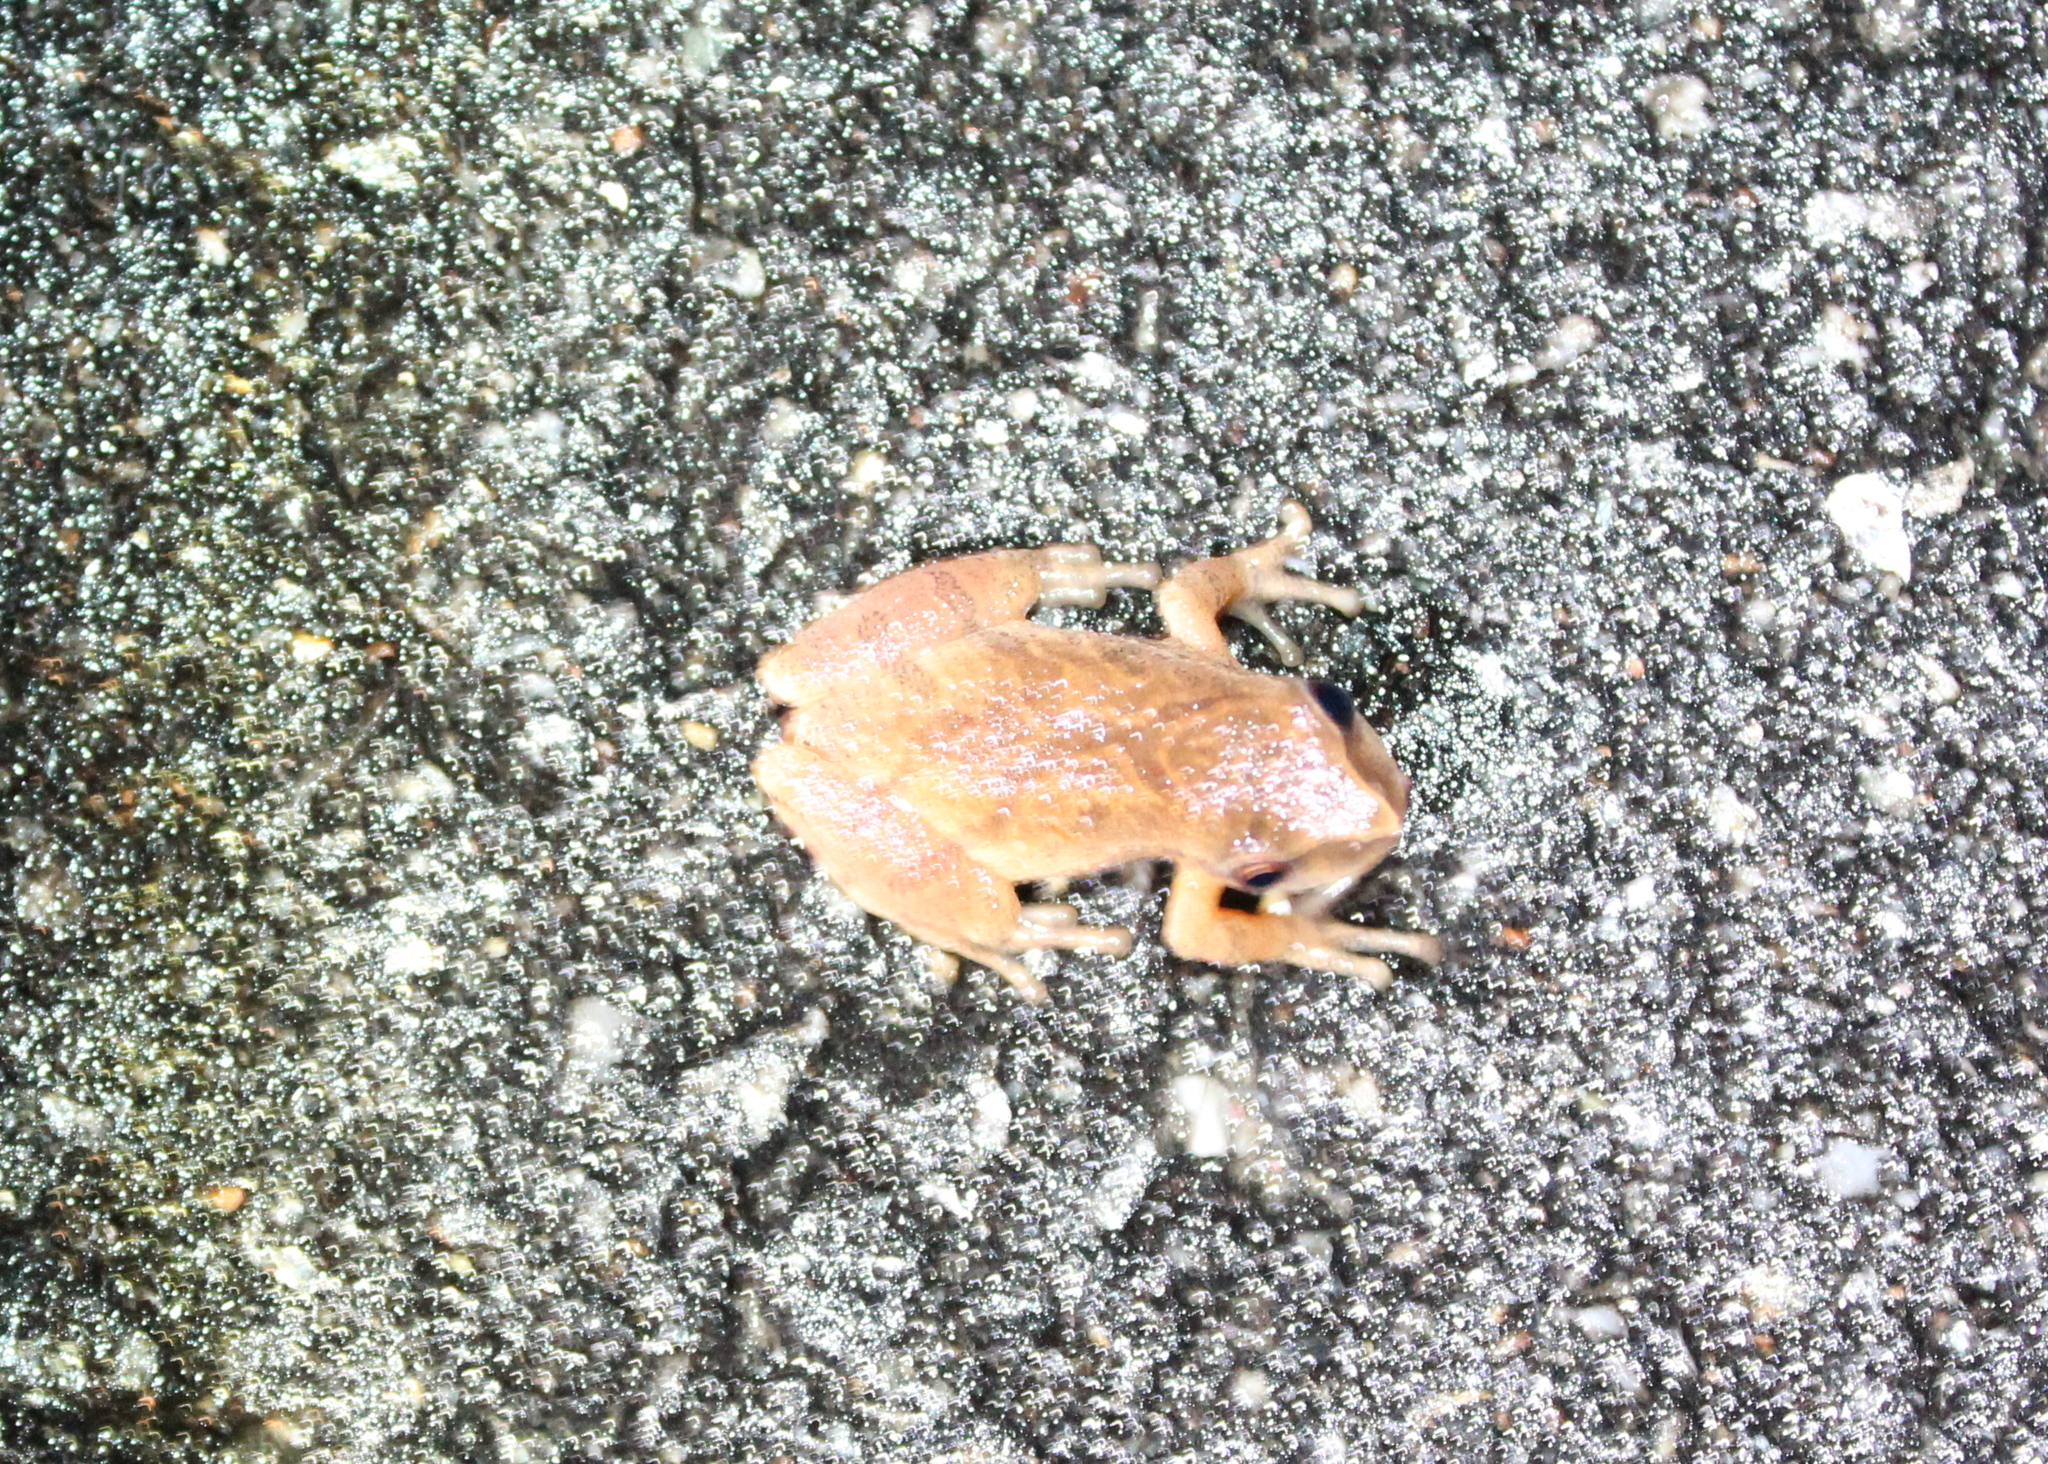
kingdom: Animalia
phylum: Chordata
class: Amphibia
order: Anura
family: Hylidae
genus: Pseudacris
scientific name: Pseudacris crucifer
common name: Spring peeper
